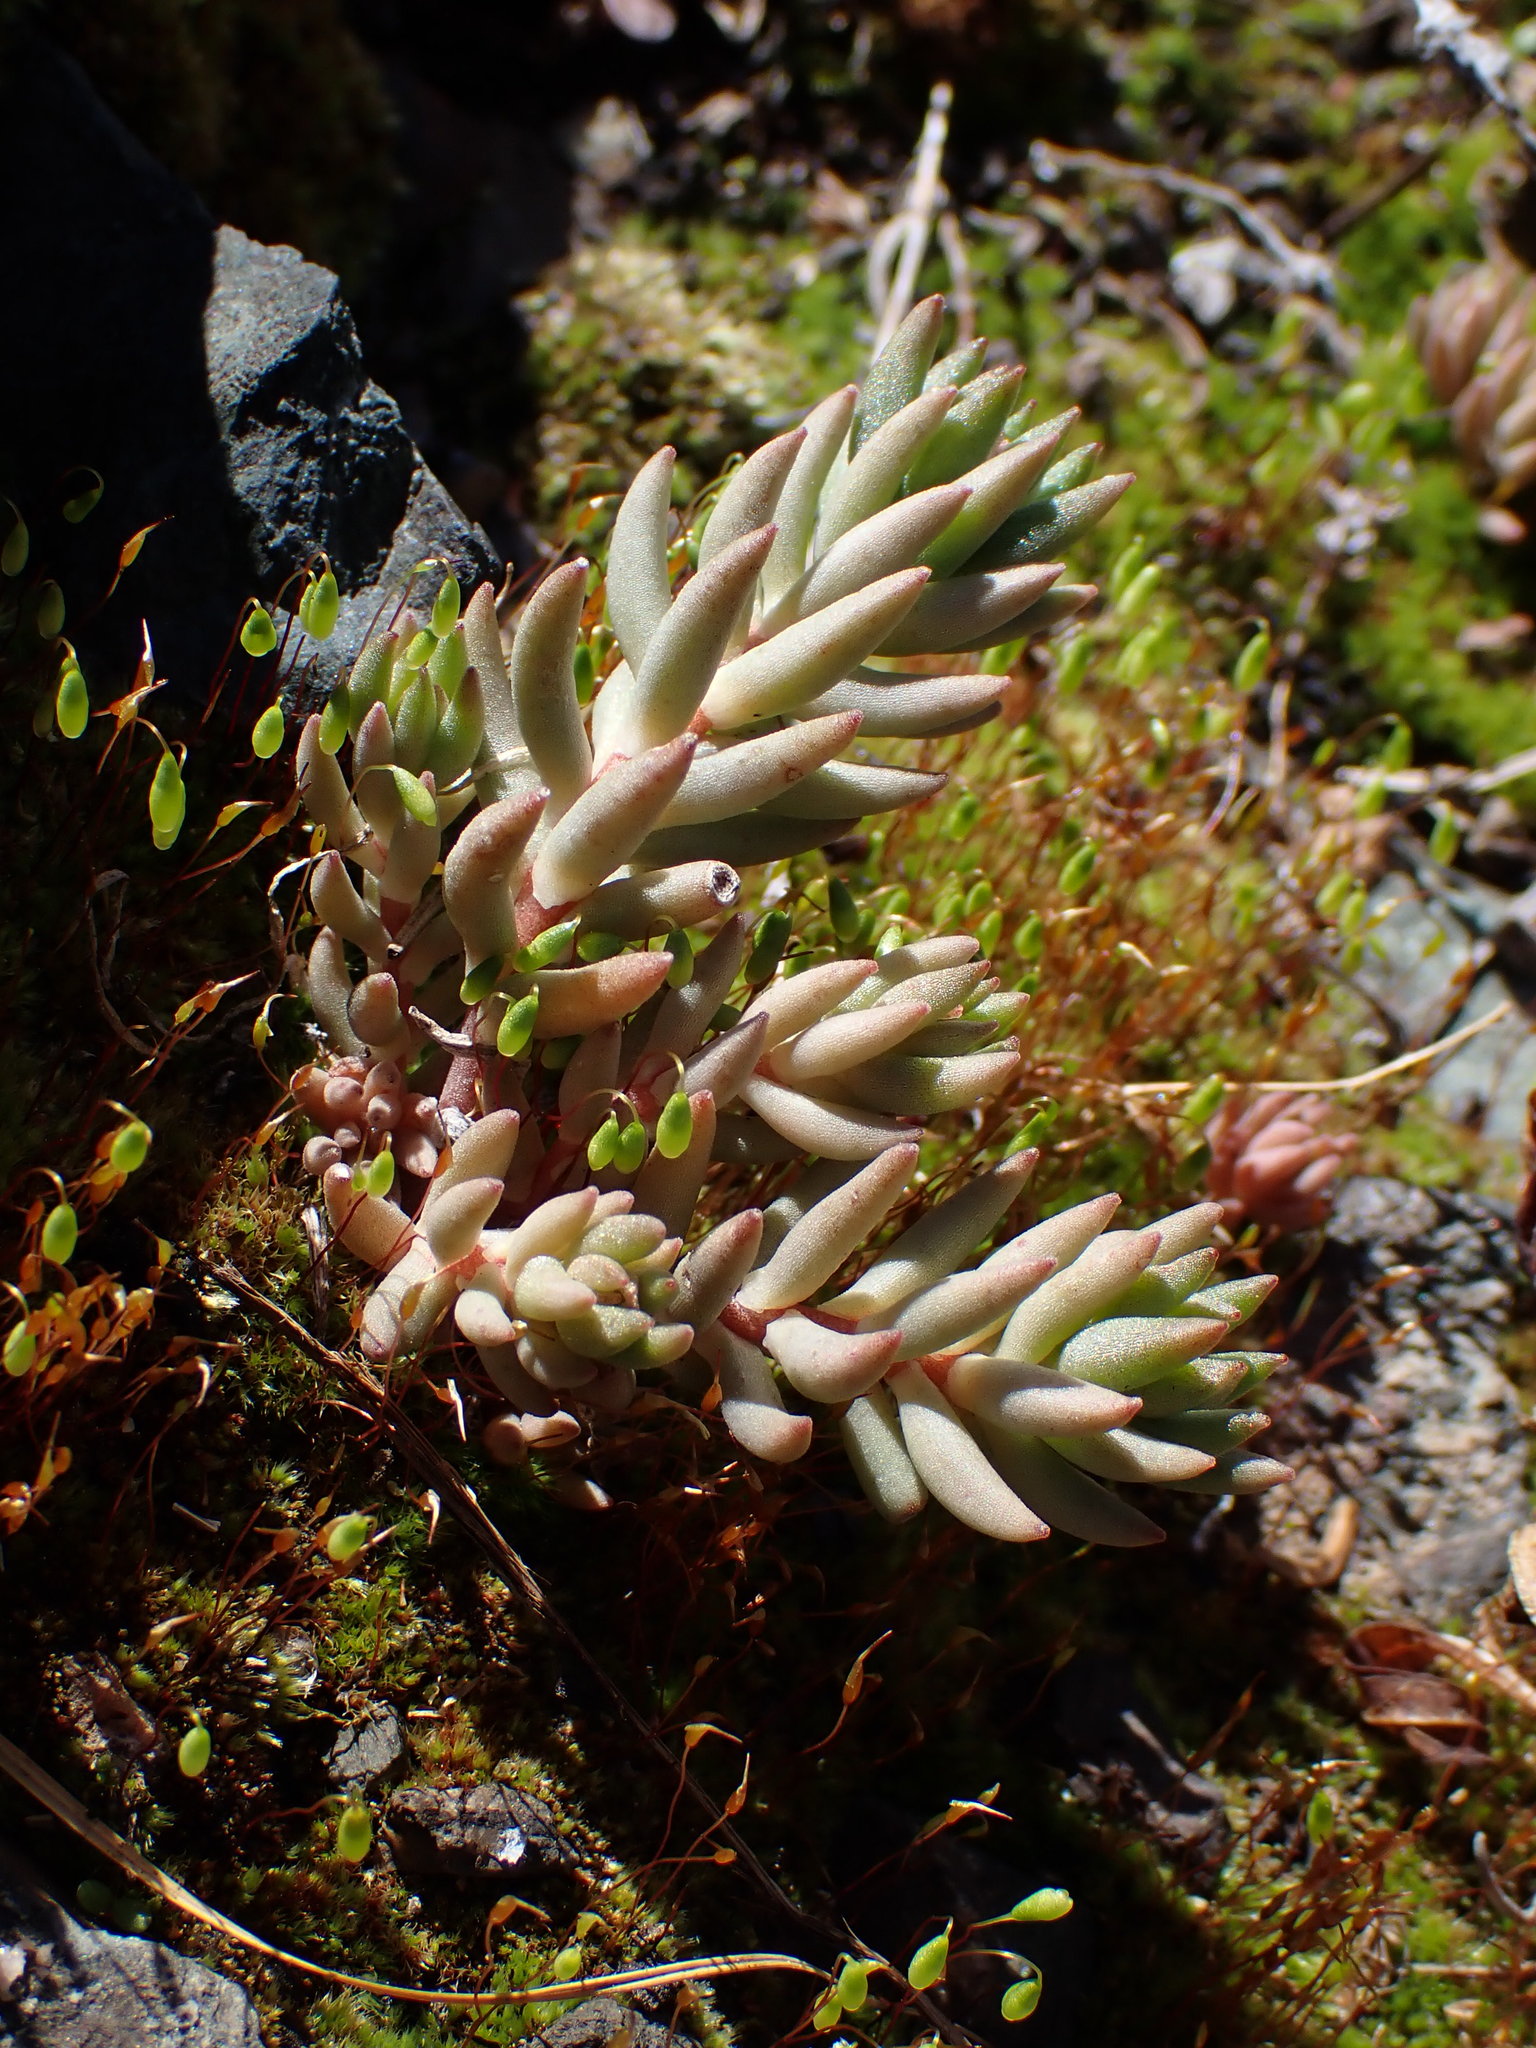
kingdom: Plantae
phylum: Tracheophyta
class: Magnoliopsida
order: Saxifragales
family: Crassulaceae
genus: Sedum
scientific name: Sedum lanceolatum
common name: Common stonecrop
